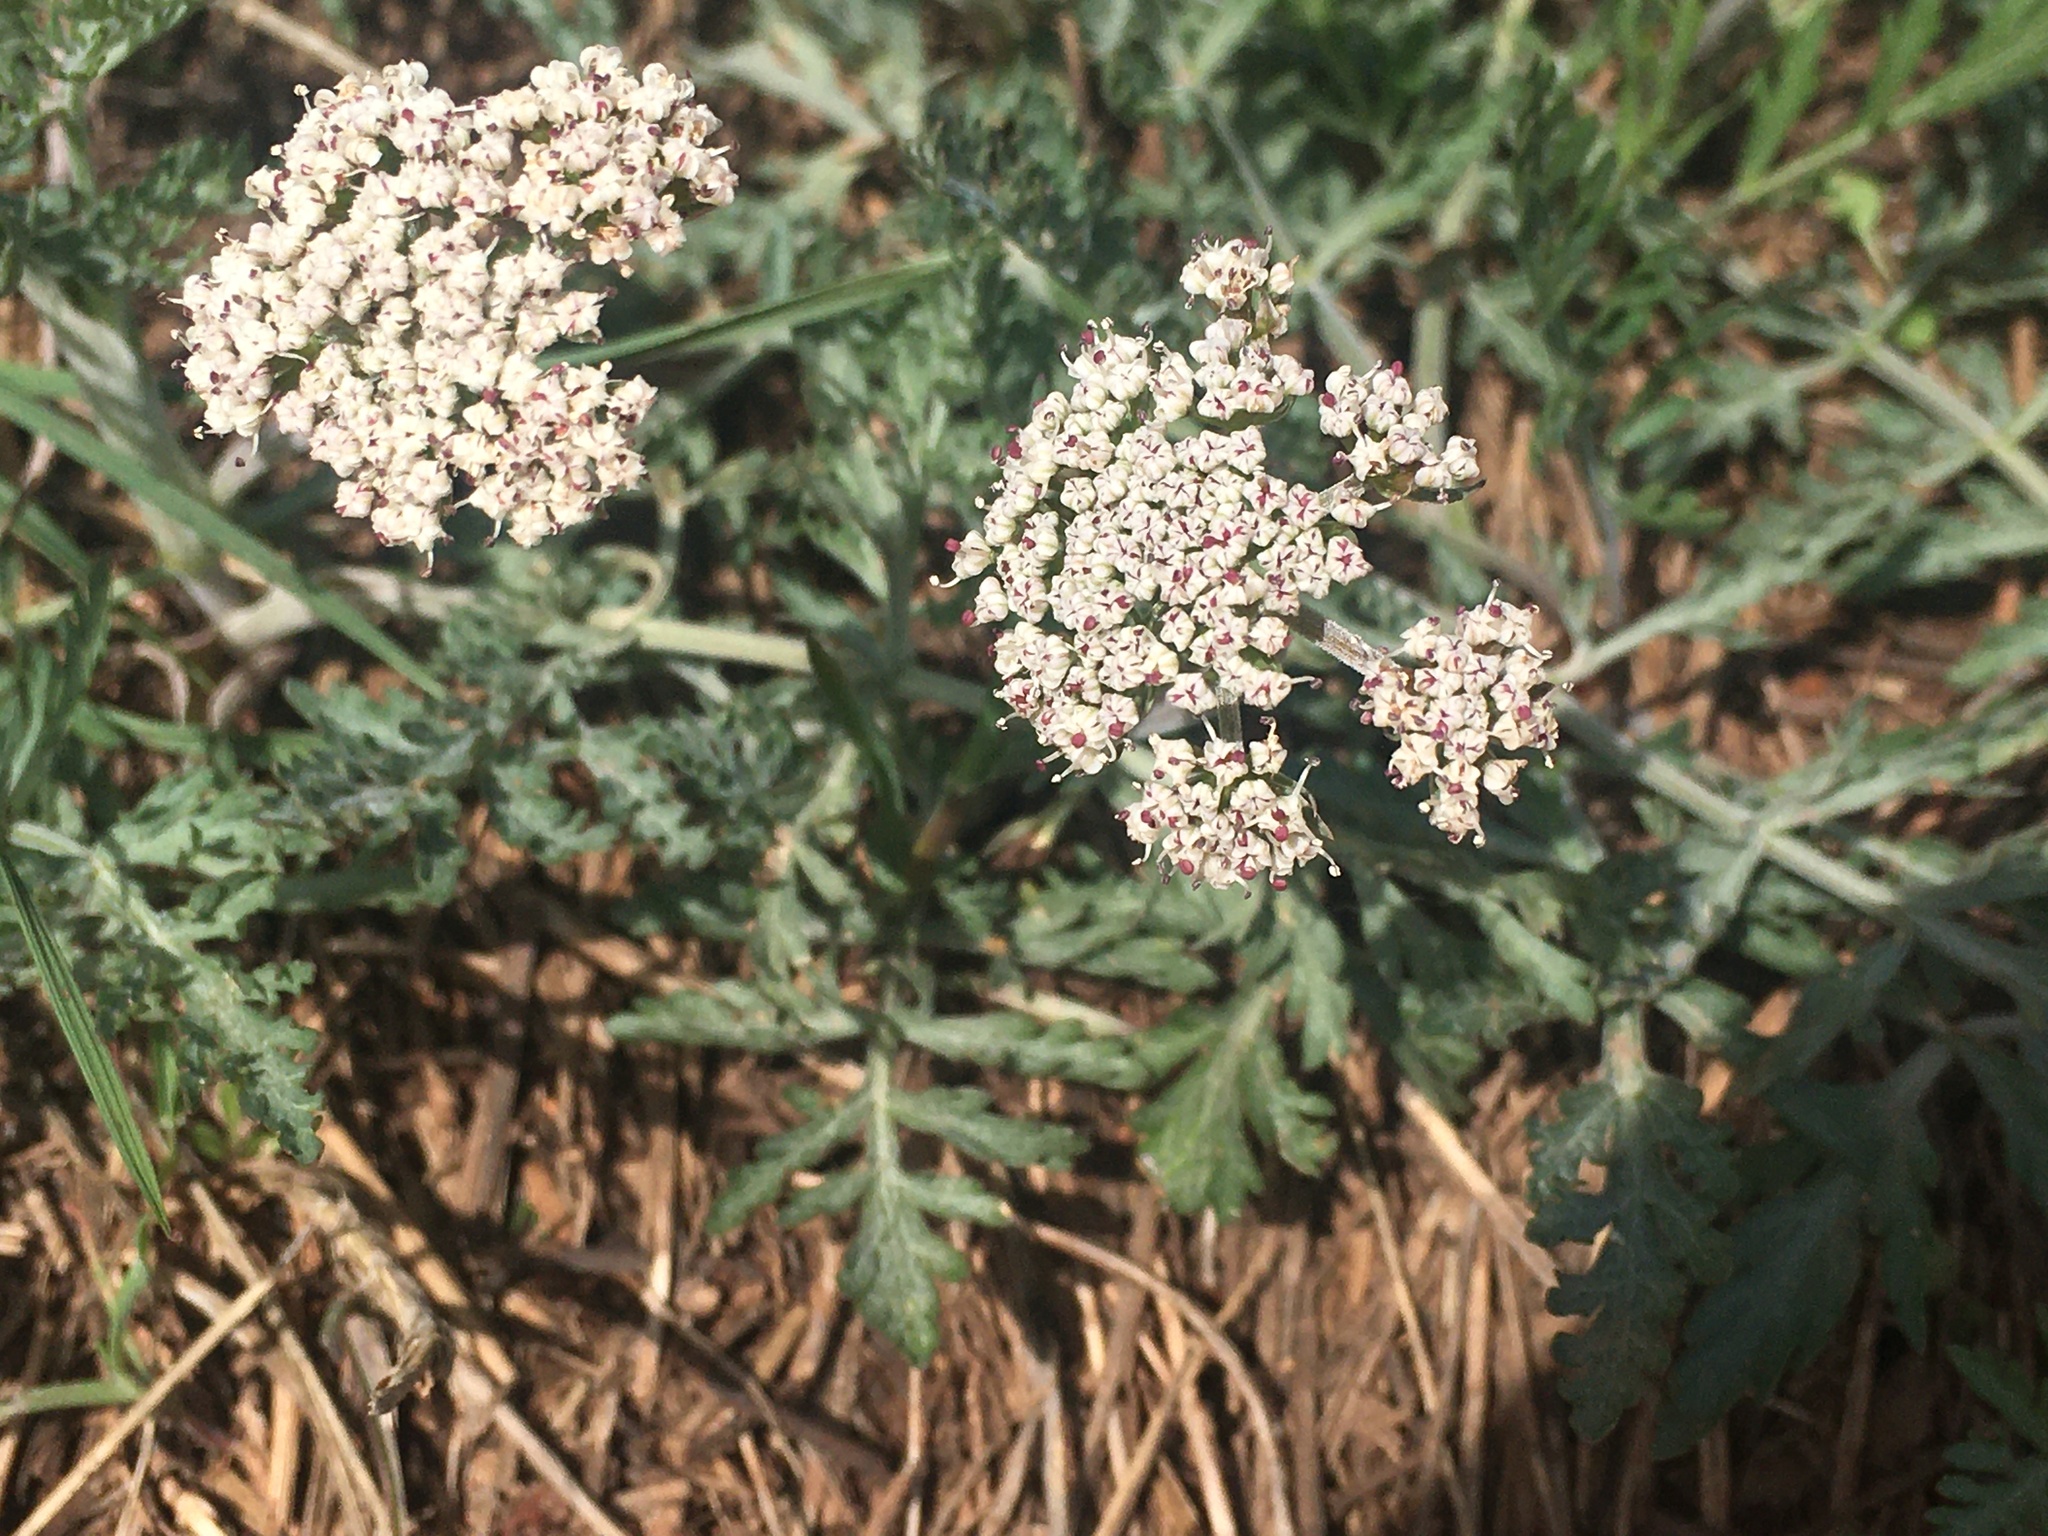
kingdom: Plantae
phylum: Tracheophyta
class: Magnoliopsida
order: Apiales
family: Apiaceae
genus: Lomatium
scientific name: Lomatium orientale
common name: Eastern cous
